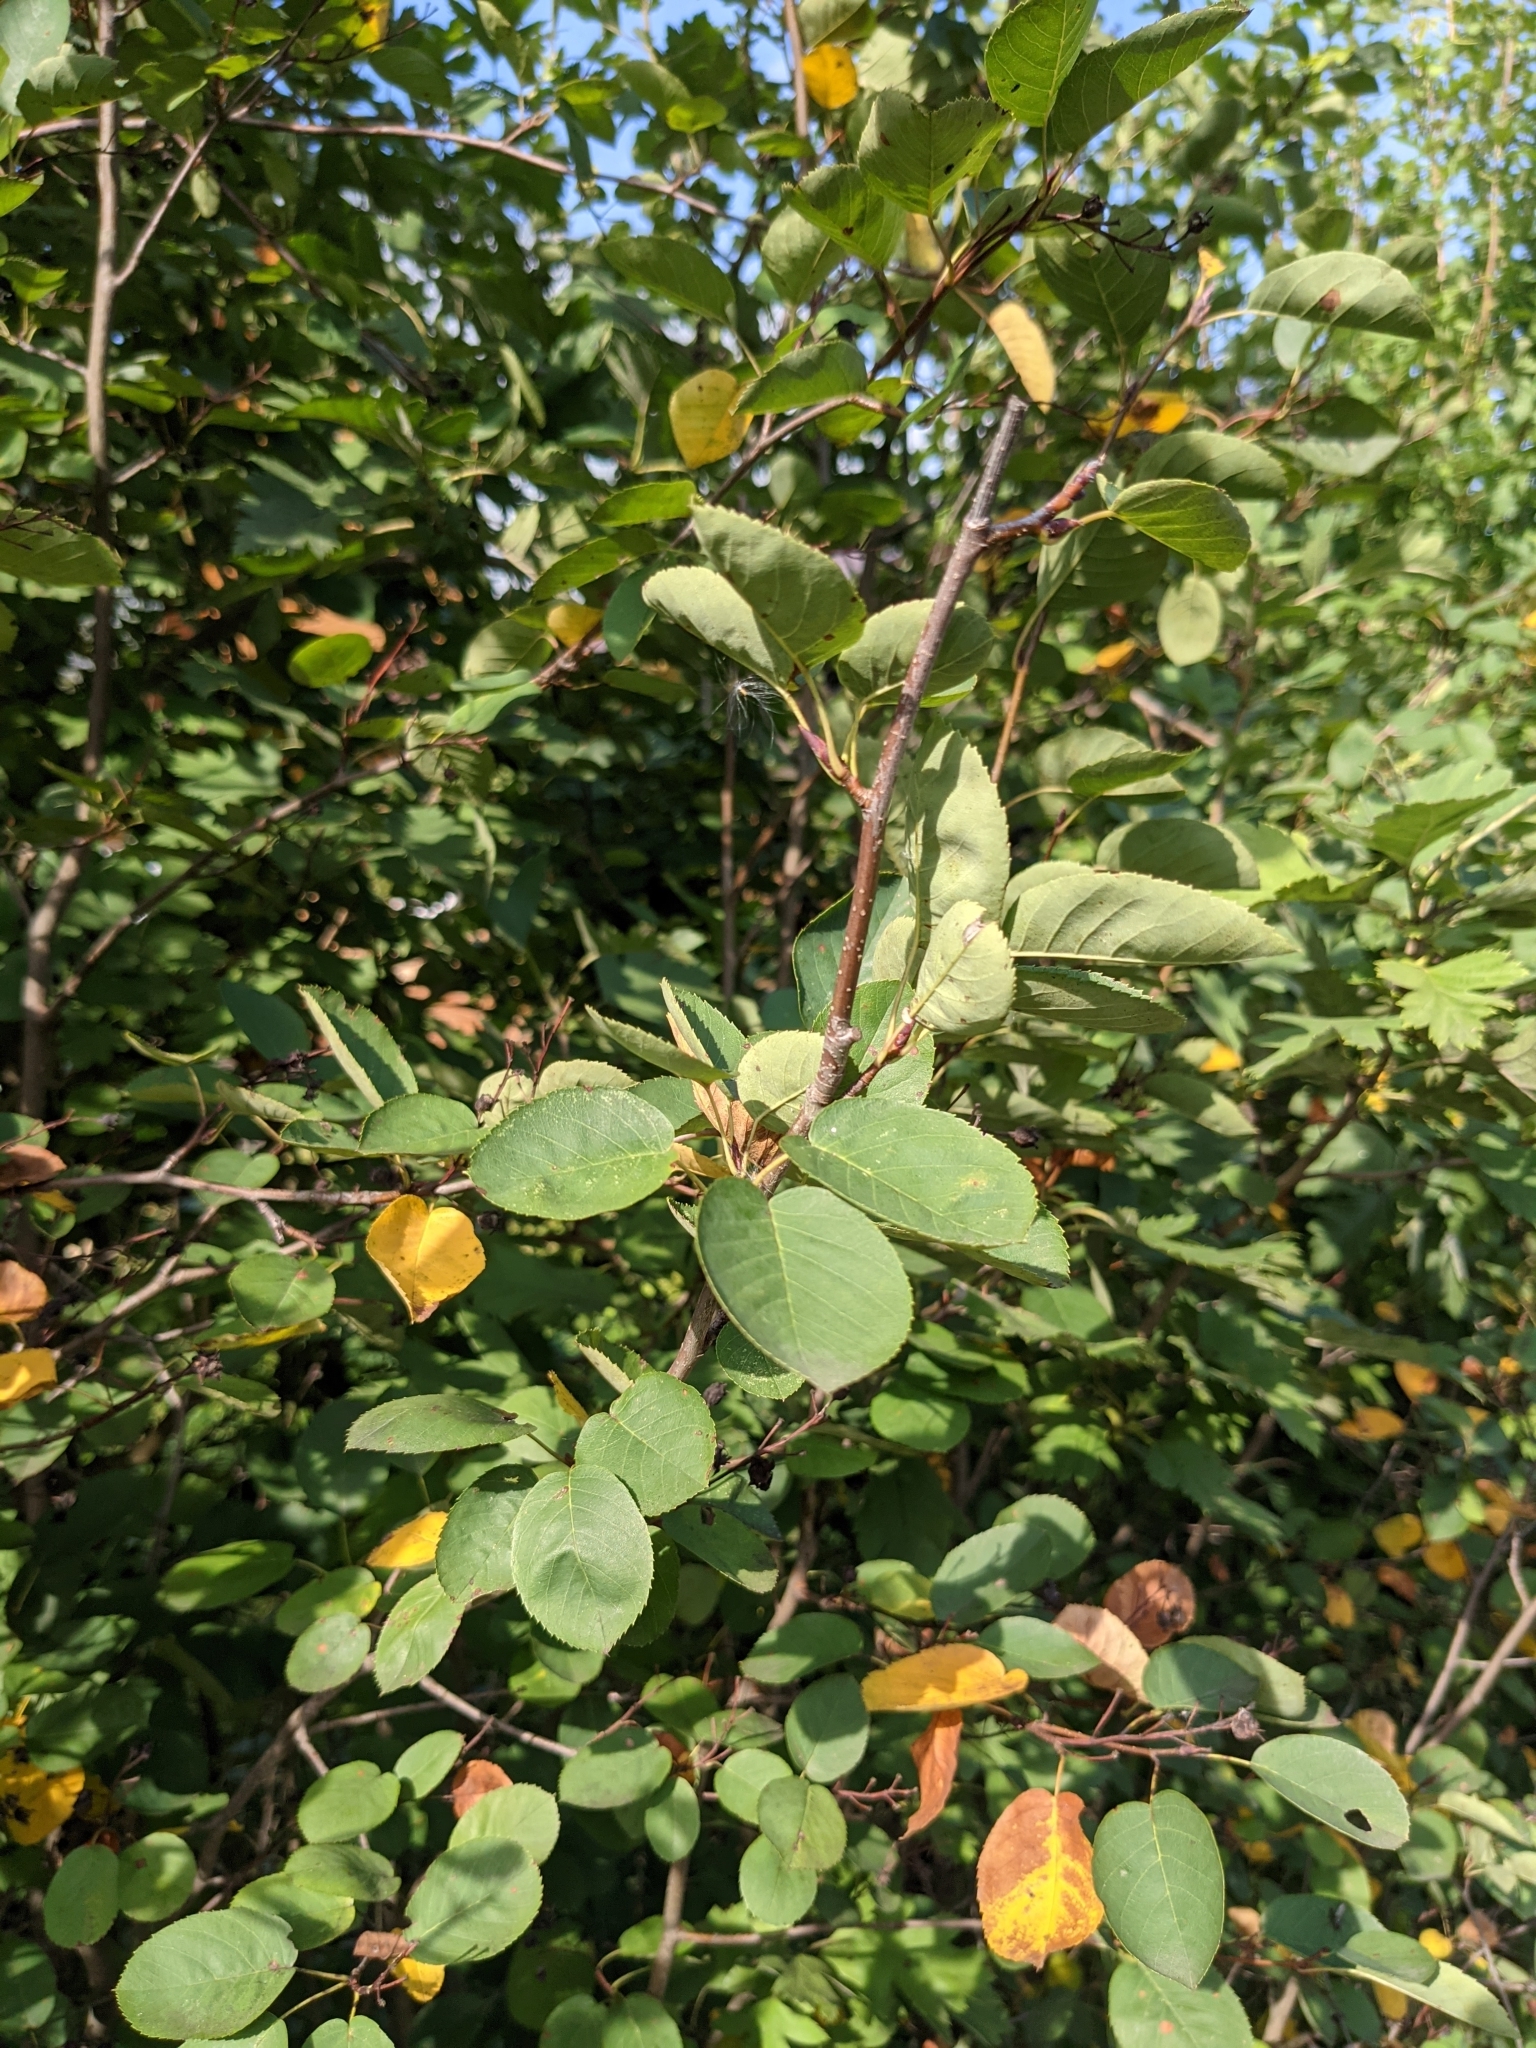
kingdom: Plantae
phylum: Tracheophyta
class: Magnoliopsida
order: Rosales
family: Rosaceae
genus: Amelanchier
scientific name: Amelanchier
